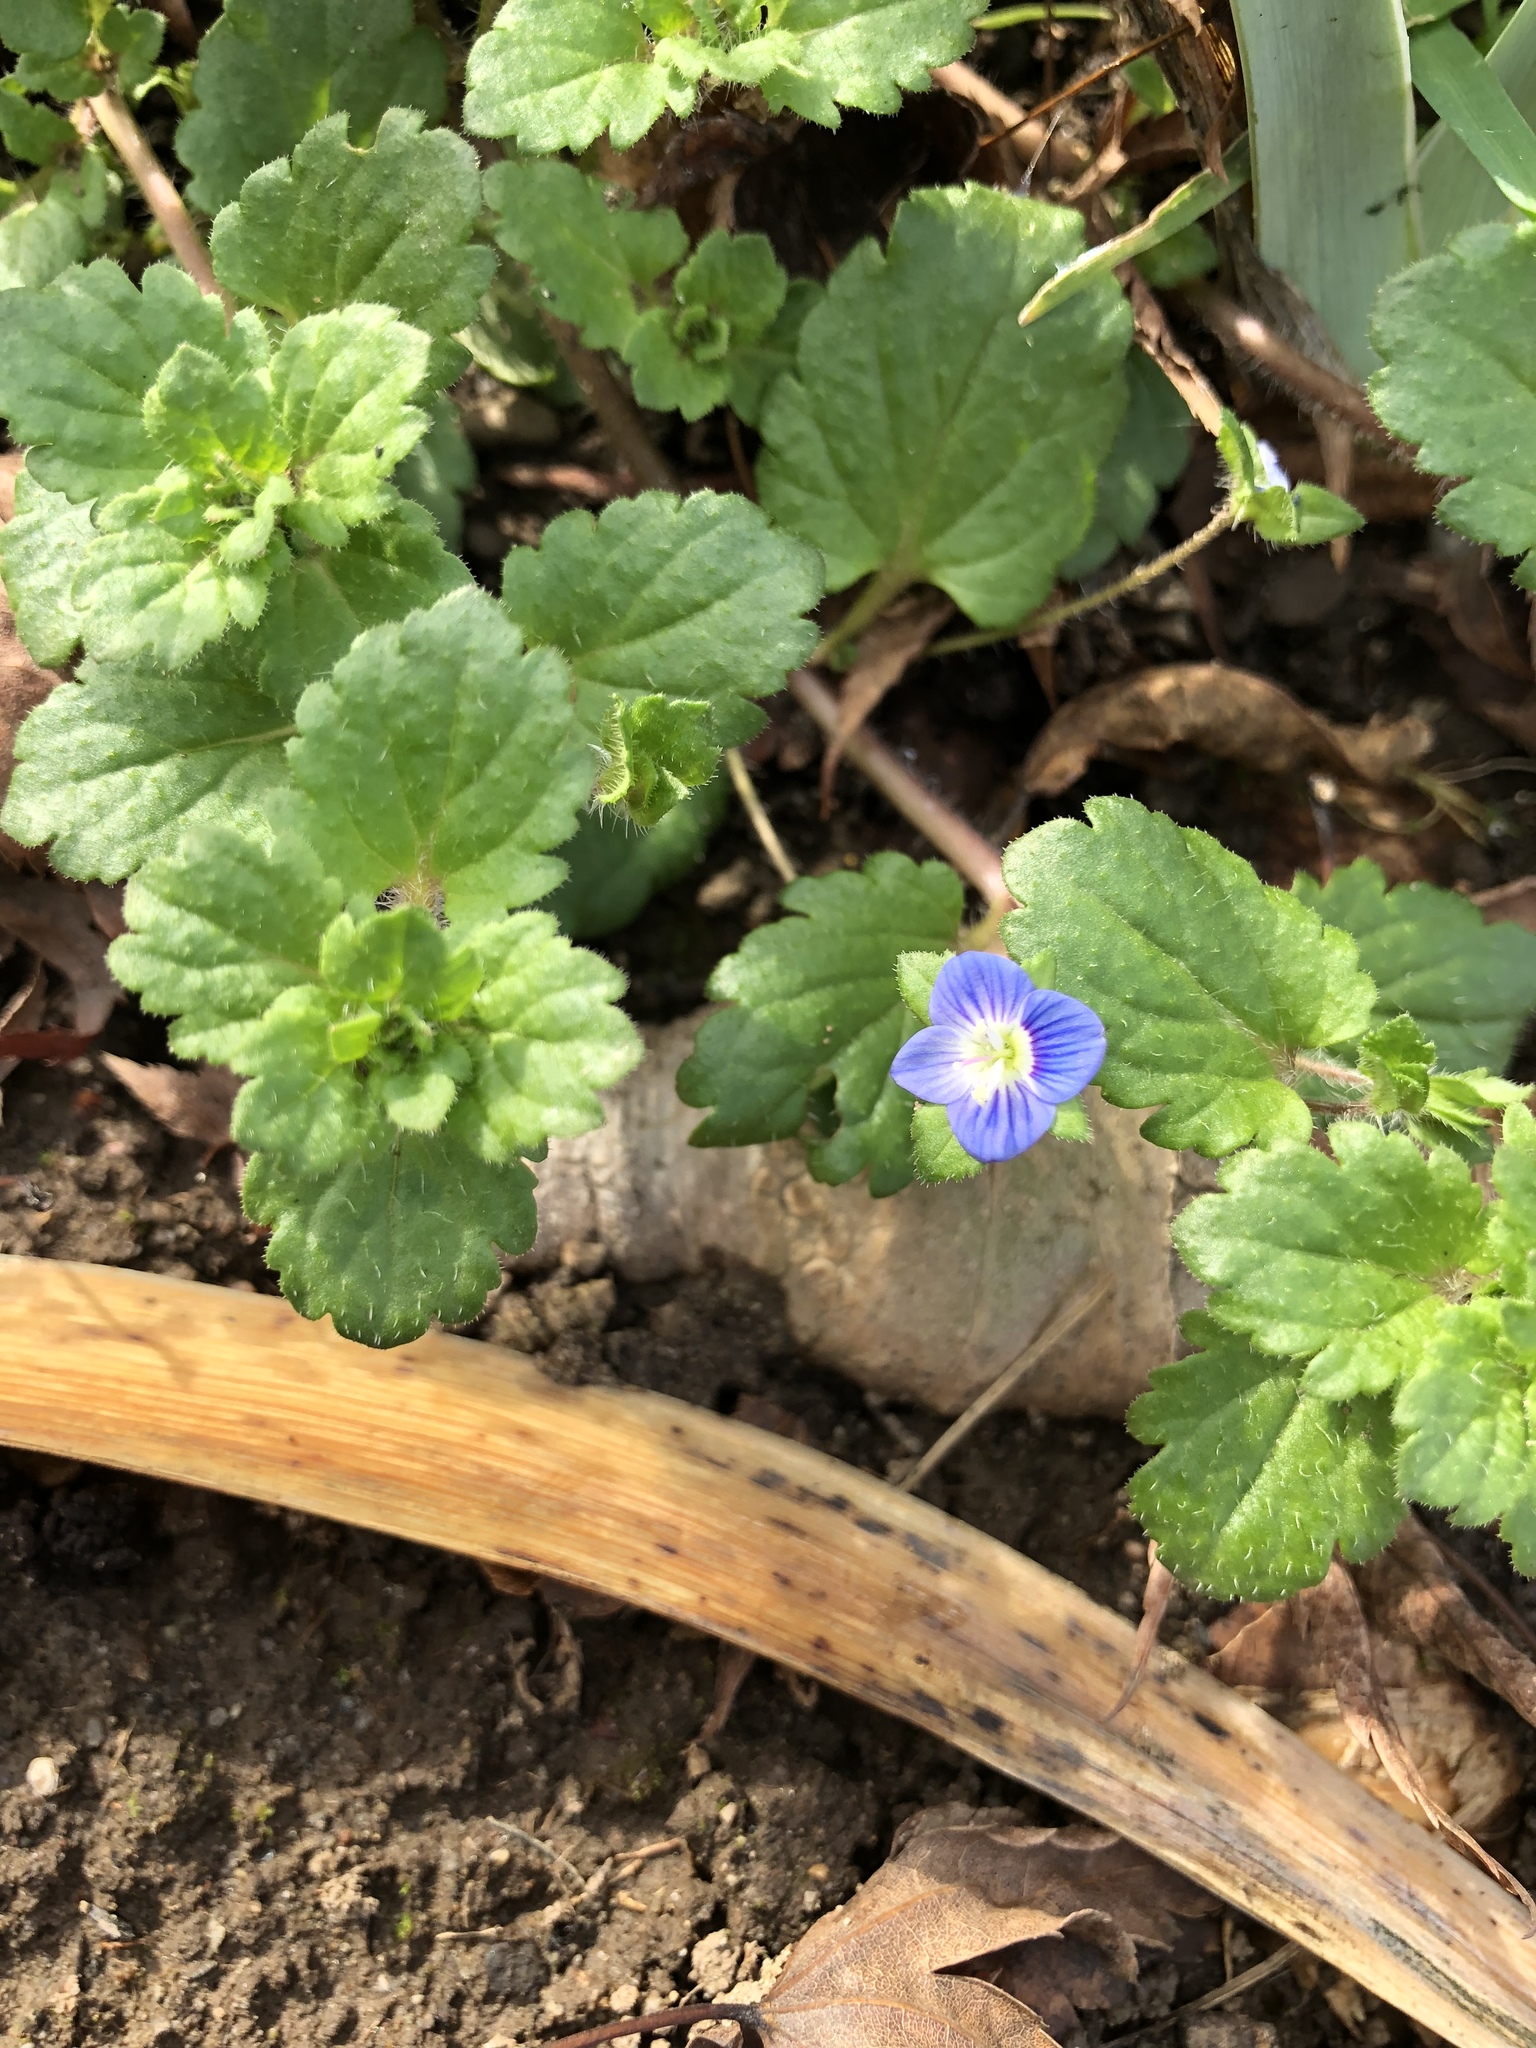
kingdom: Plantae
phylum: Tracheophyta
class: Magnoliopsida
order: Lamiales
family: Plantaginaceae
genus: Veronica
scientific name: Veronica persica
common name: Common field-speedwell
